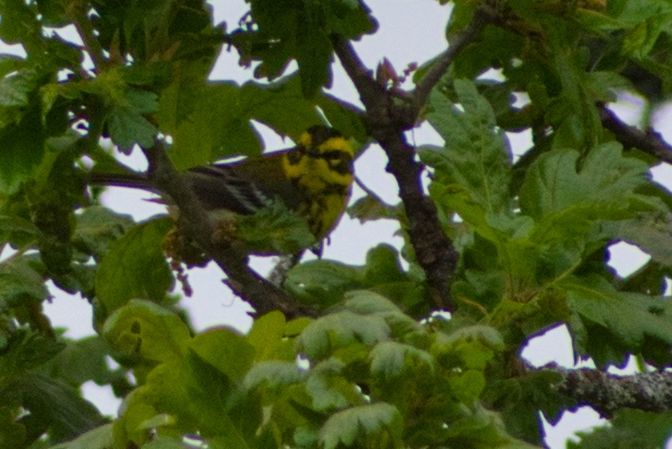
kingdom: Animalia
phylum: Chordata
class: Aves
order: Passeriformes
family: Parulidae
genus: Setophaga
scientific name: Setophaga townsendi
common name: Townsend's warbler
